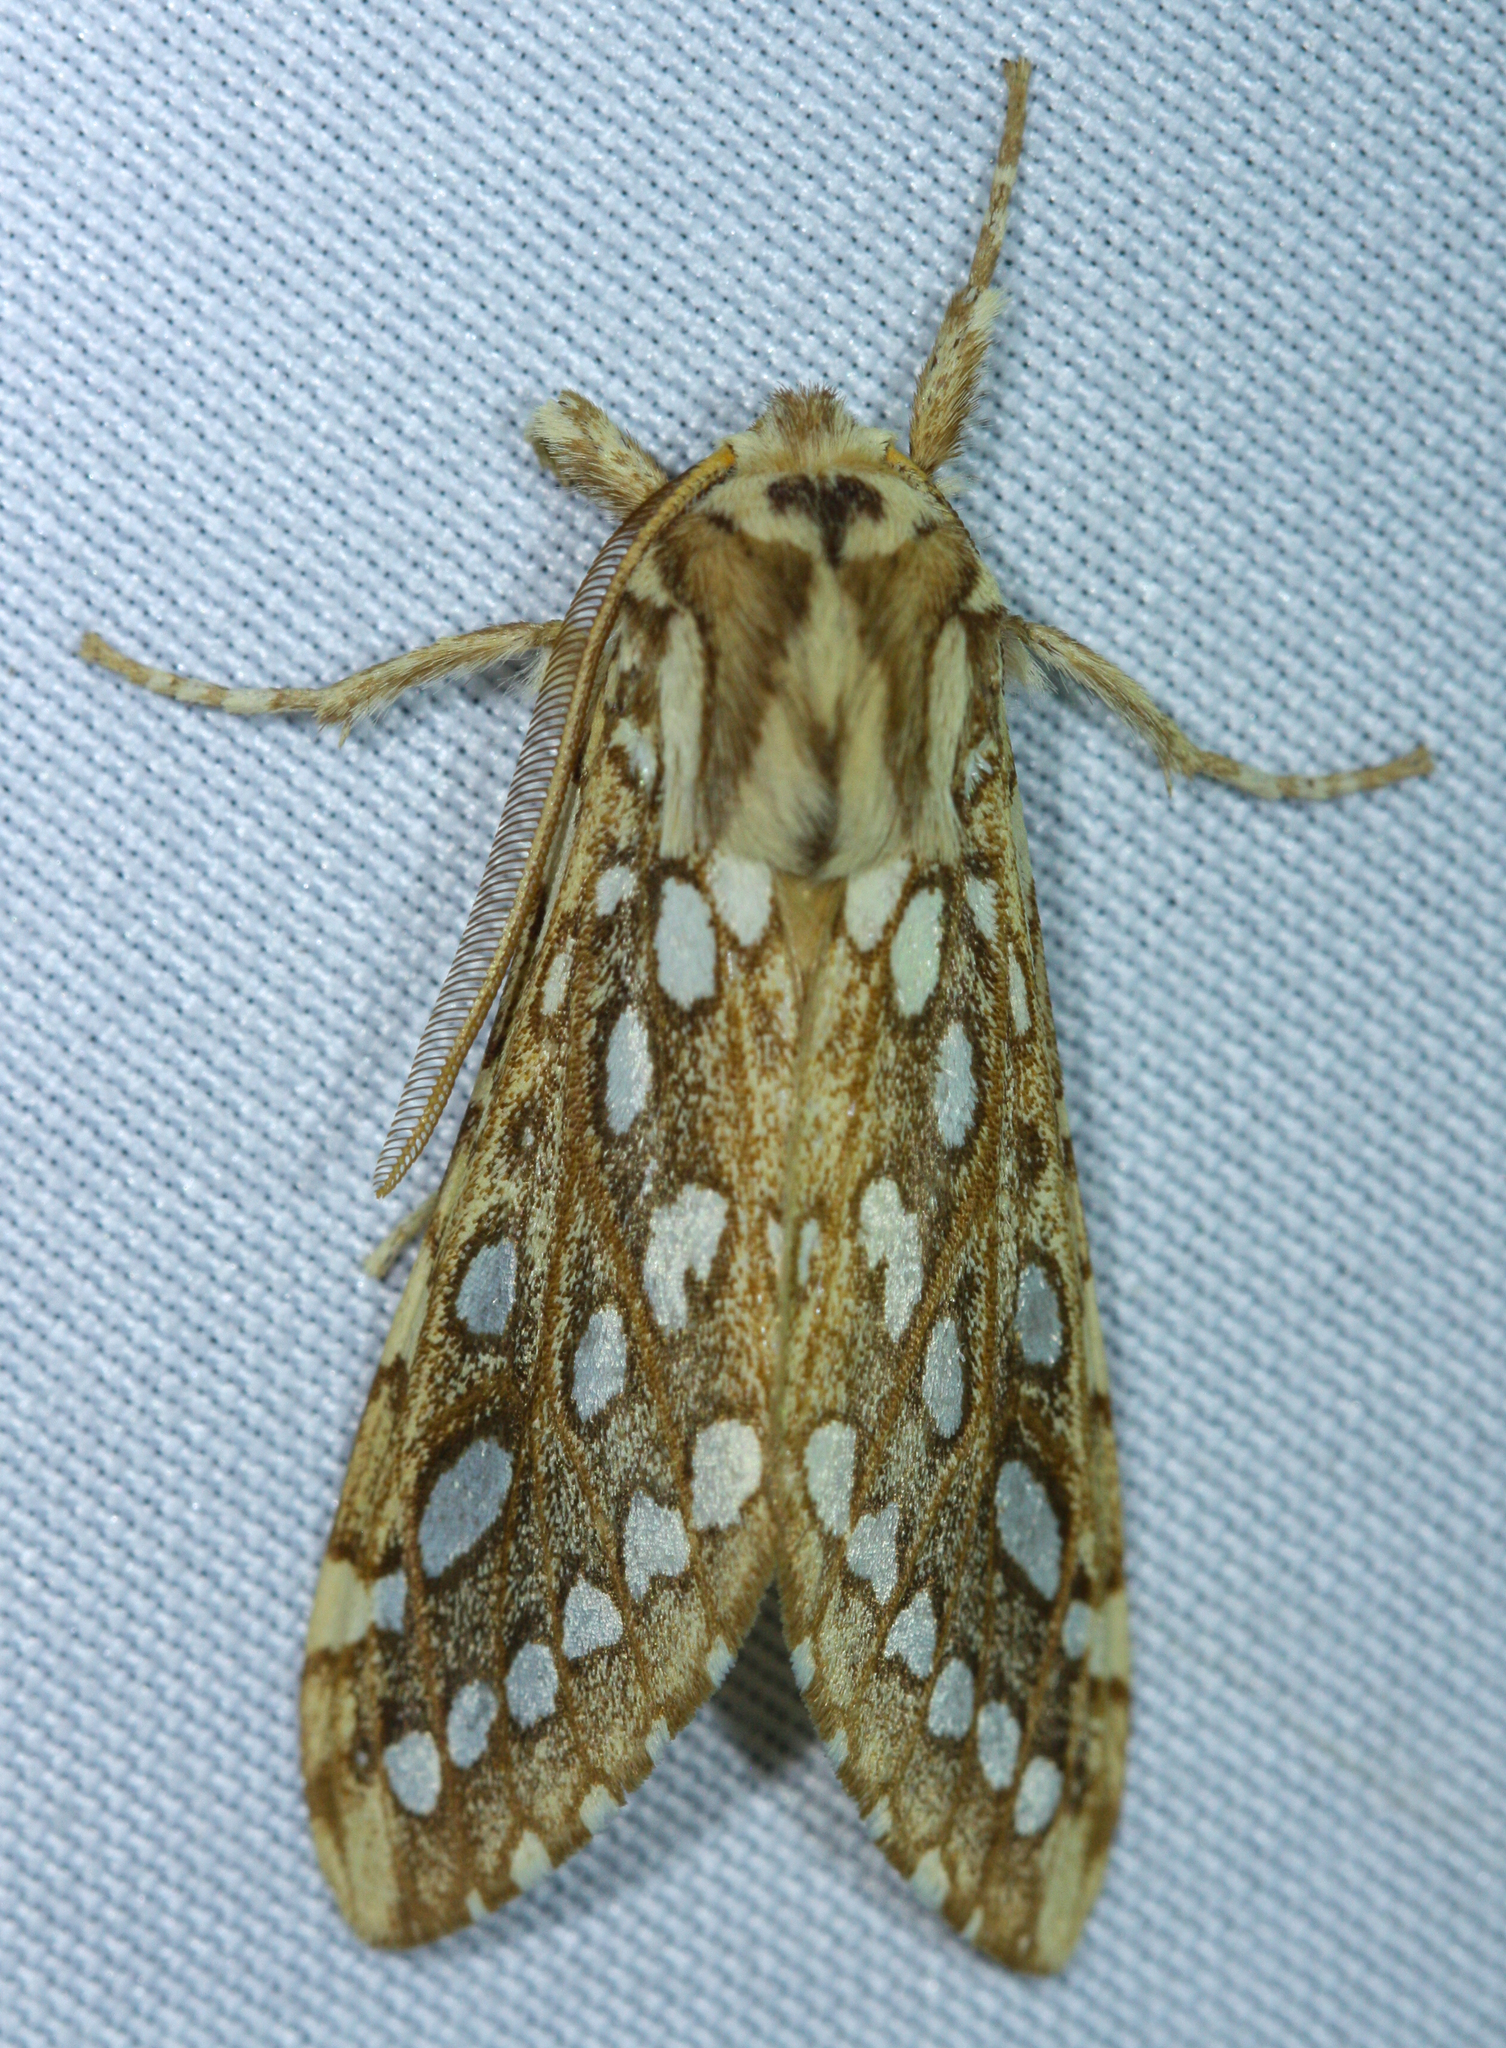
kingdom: Animalia
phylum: Arthropoda
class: Insecta
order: Lepidoptera
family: Erebidae
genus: Lophocampa
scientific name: Lophocampa argentata
